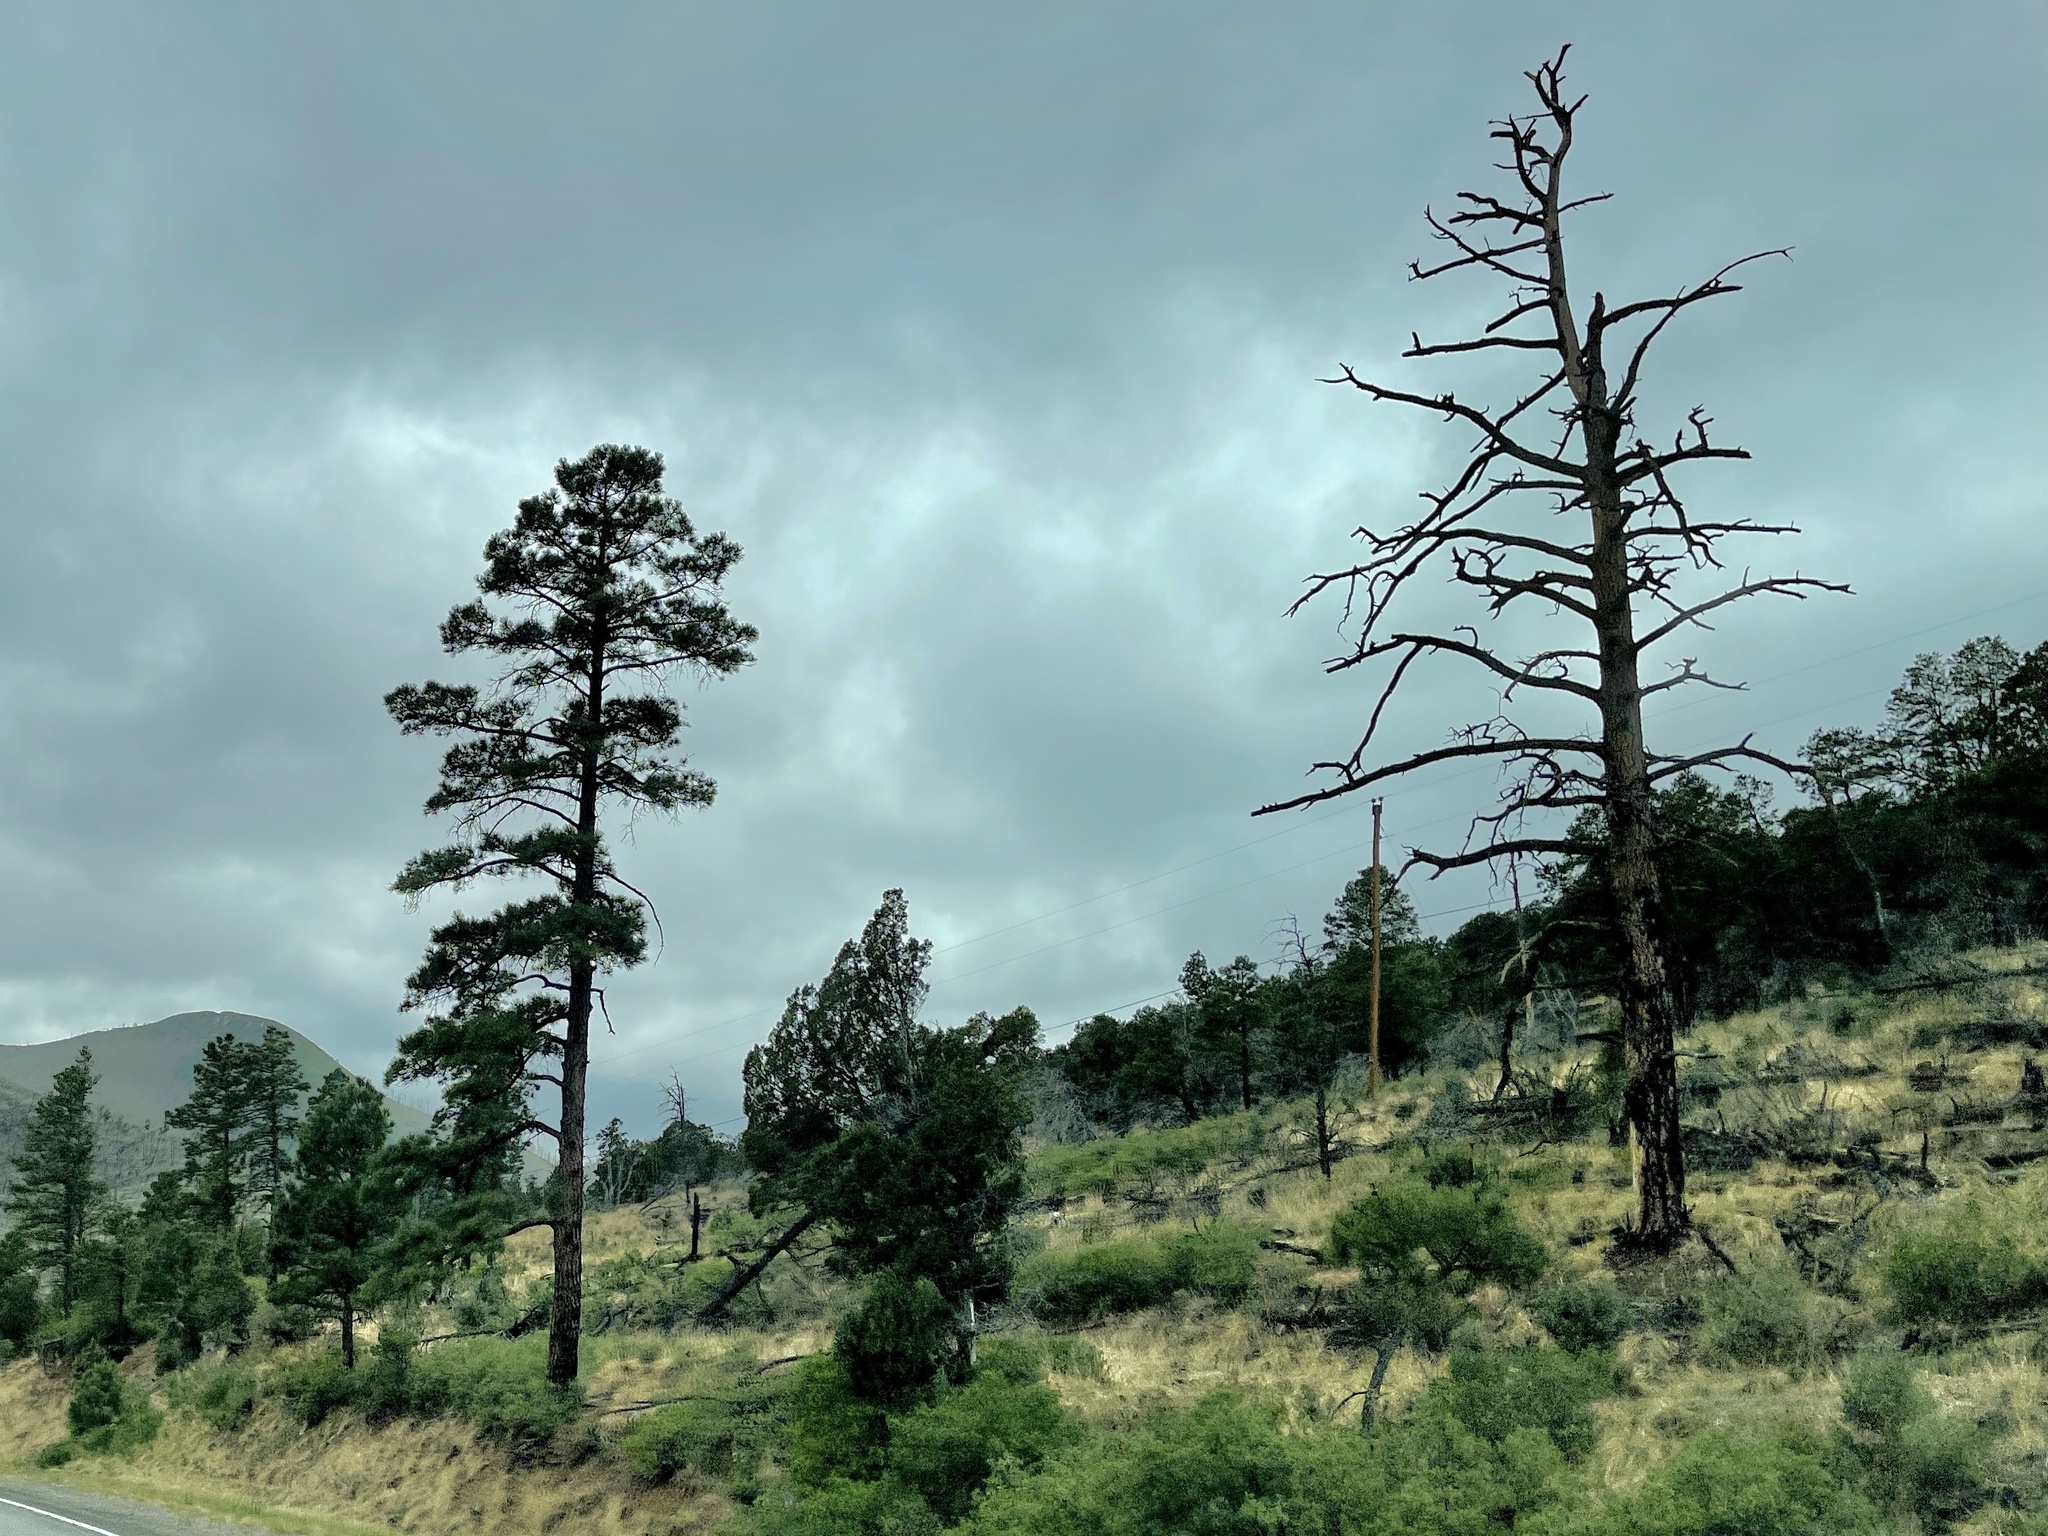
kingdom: Plantae
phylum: Tracheophyta
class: Pinopsida
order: Pinales
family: Pinaceae
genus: Pinus
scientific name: Pinus ponderosa
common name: Western yellow-pine
